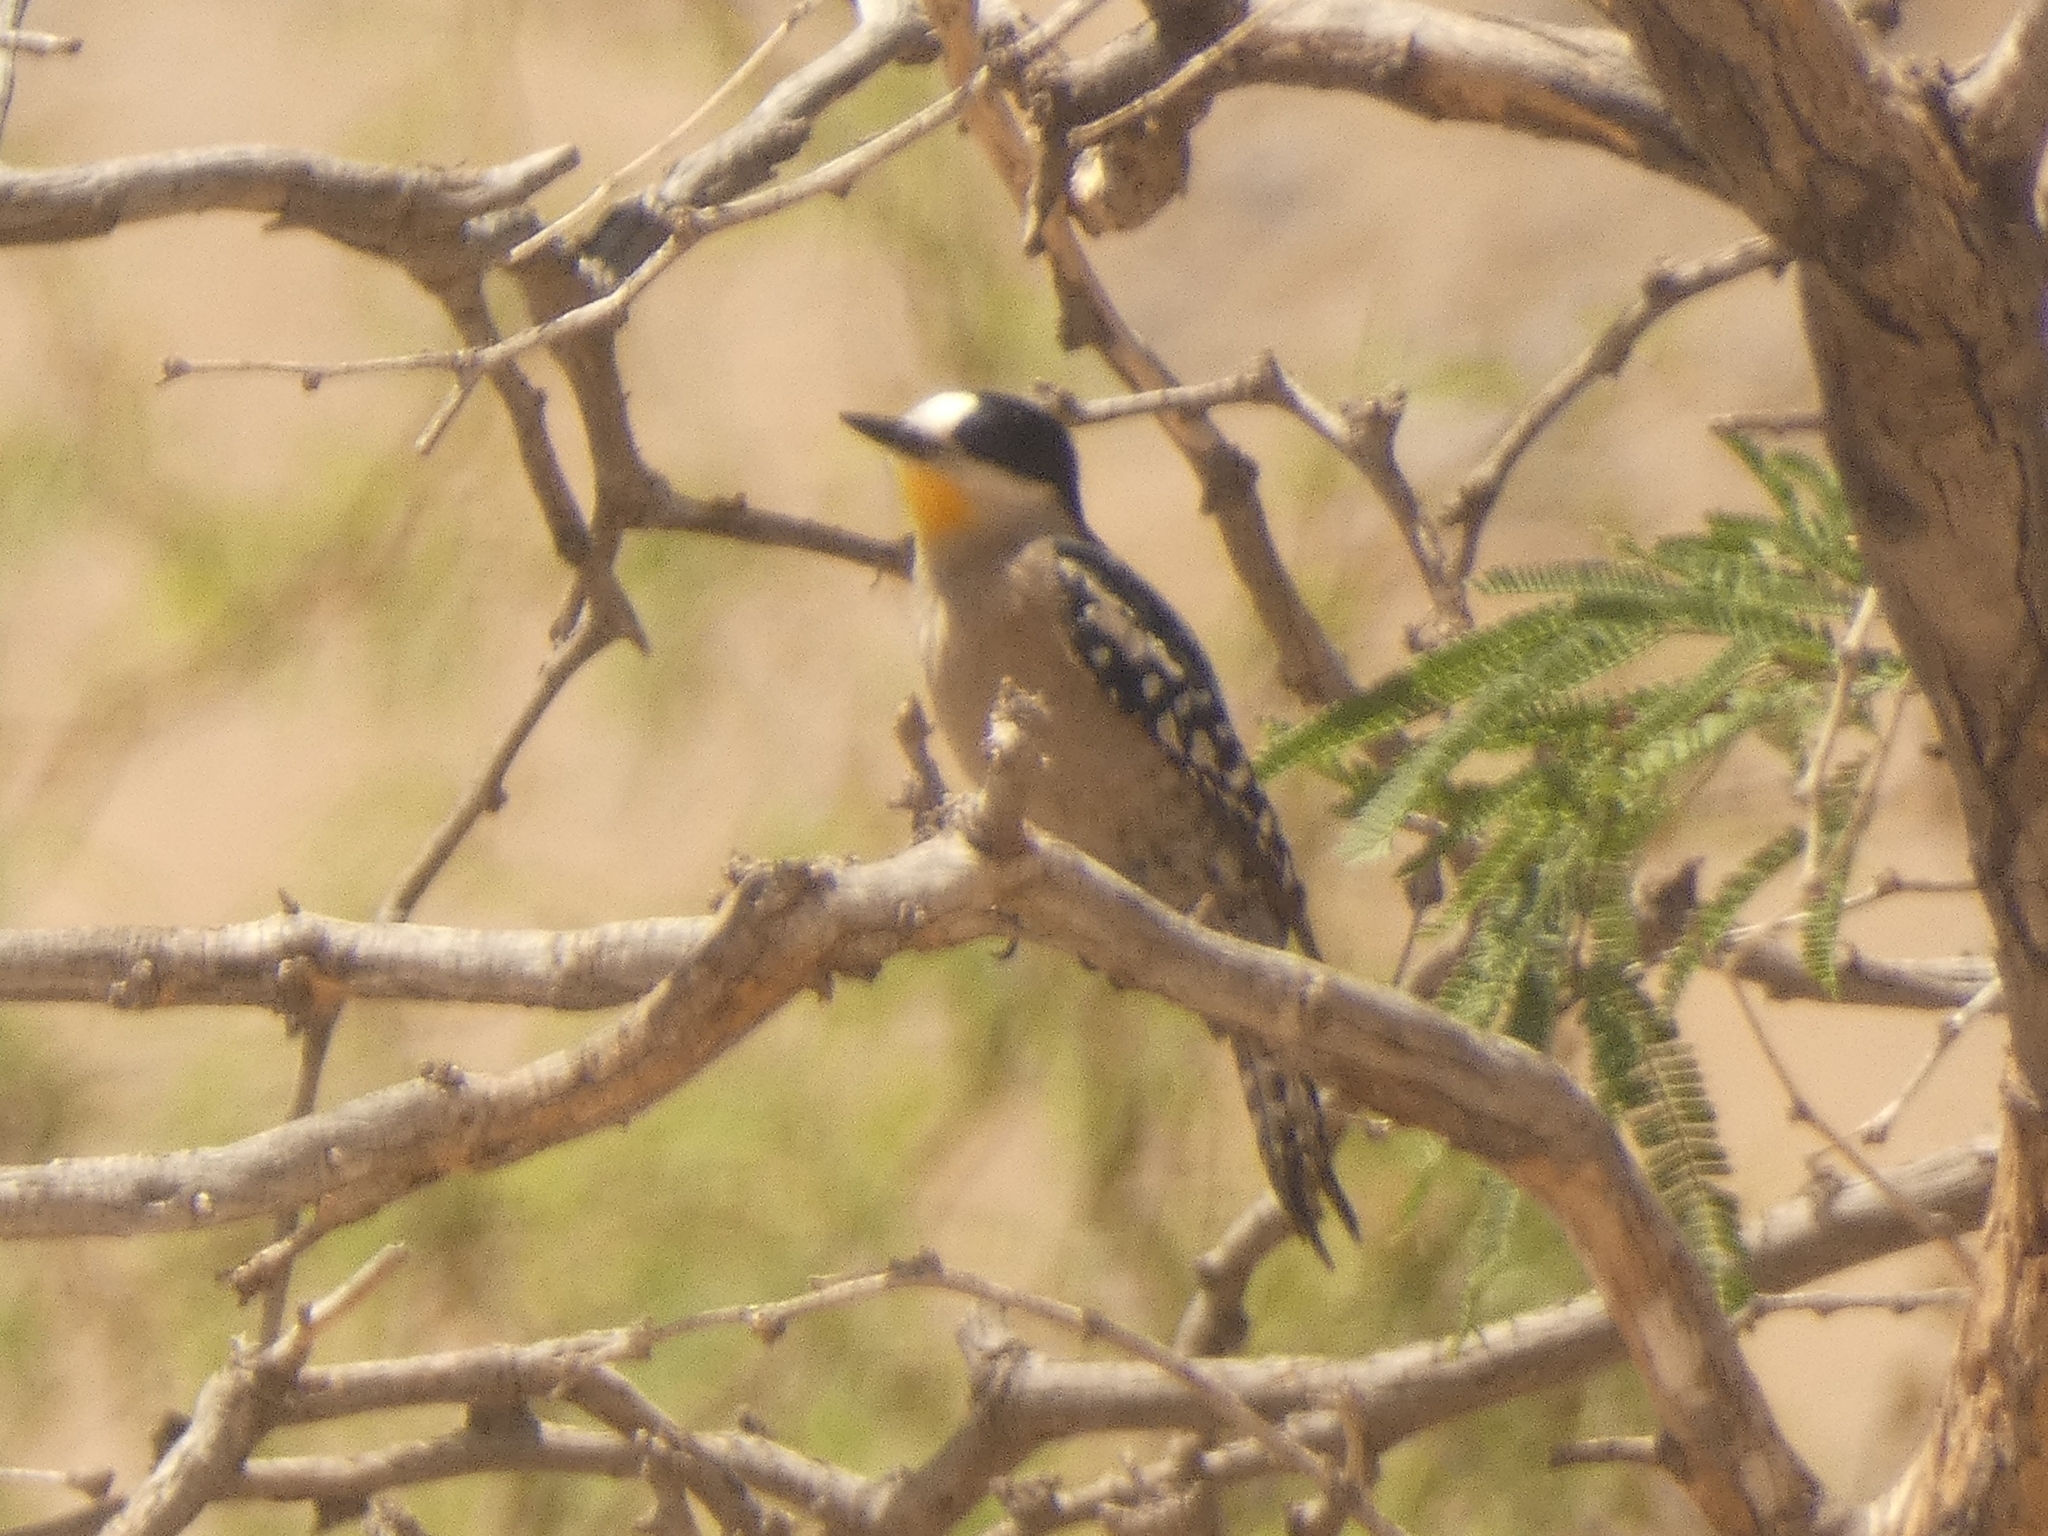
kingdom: Animalia
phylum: Chordata
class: Aves
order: Piciformes
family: Picidae
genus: Melanerpes
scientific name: Melanerpes cactorum
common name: White-fronted woodpecker
